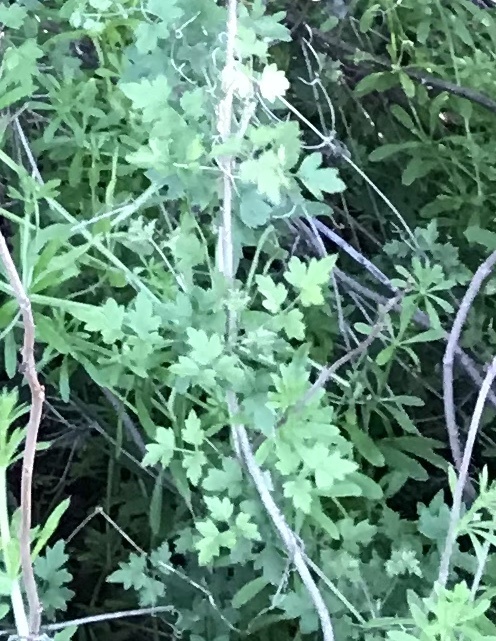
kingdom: Plantae
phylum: Tracheophyta
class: Magnoliopsida
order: Ranunculales
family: Ranunculaceae
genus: Clematis
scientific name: Clematis drummondii
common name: Texas virgin's bower
